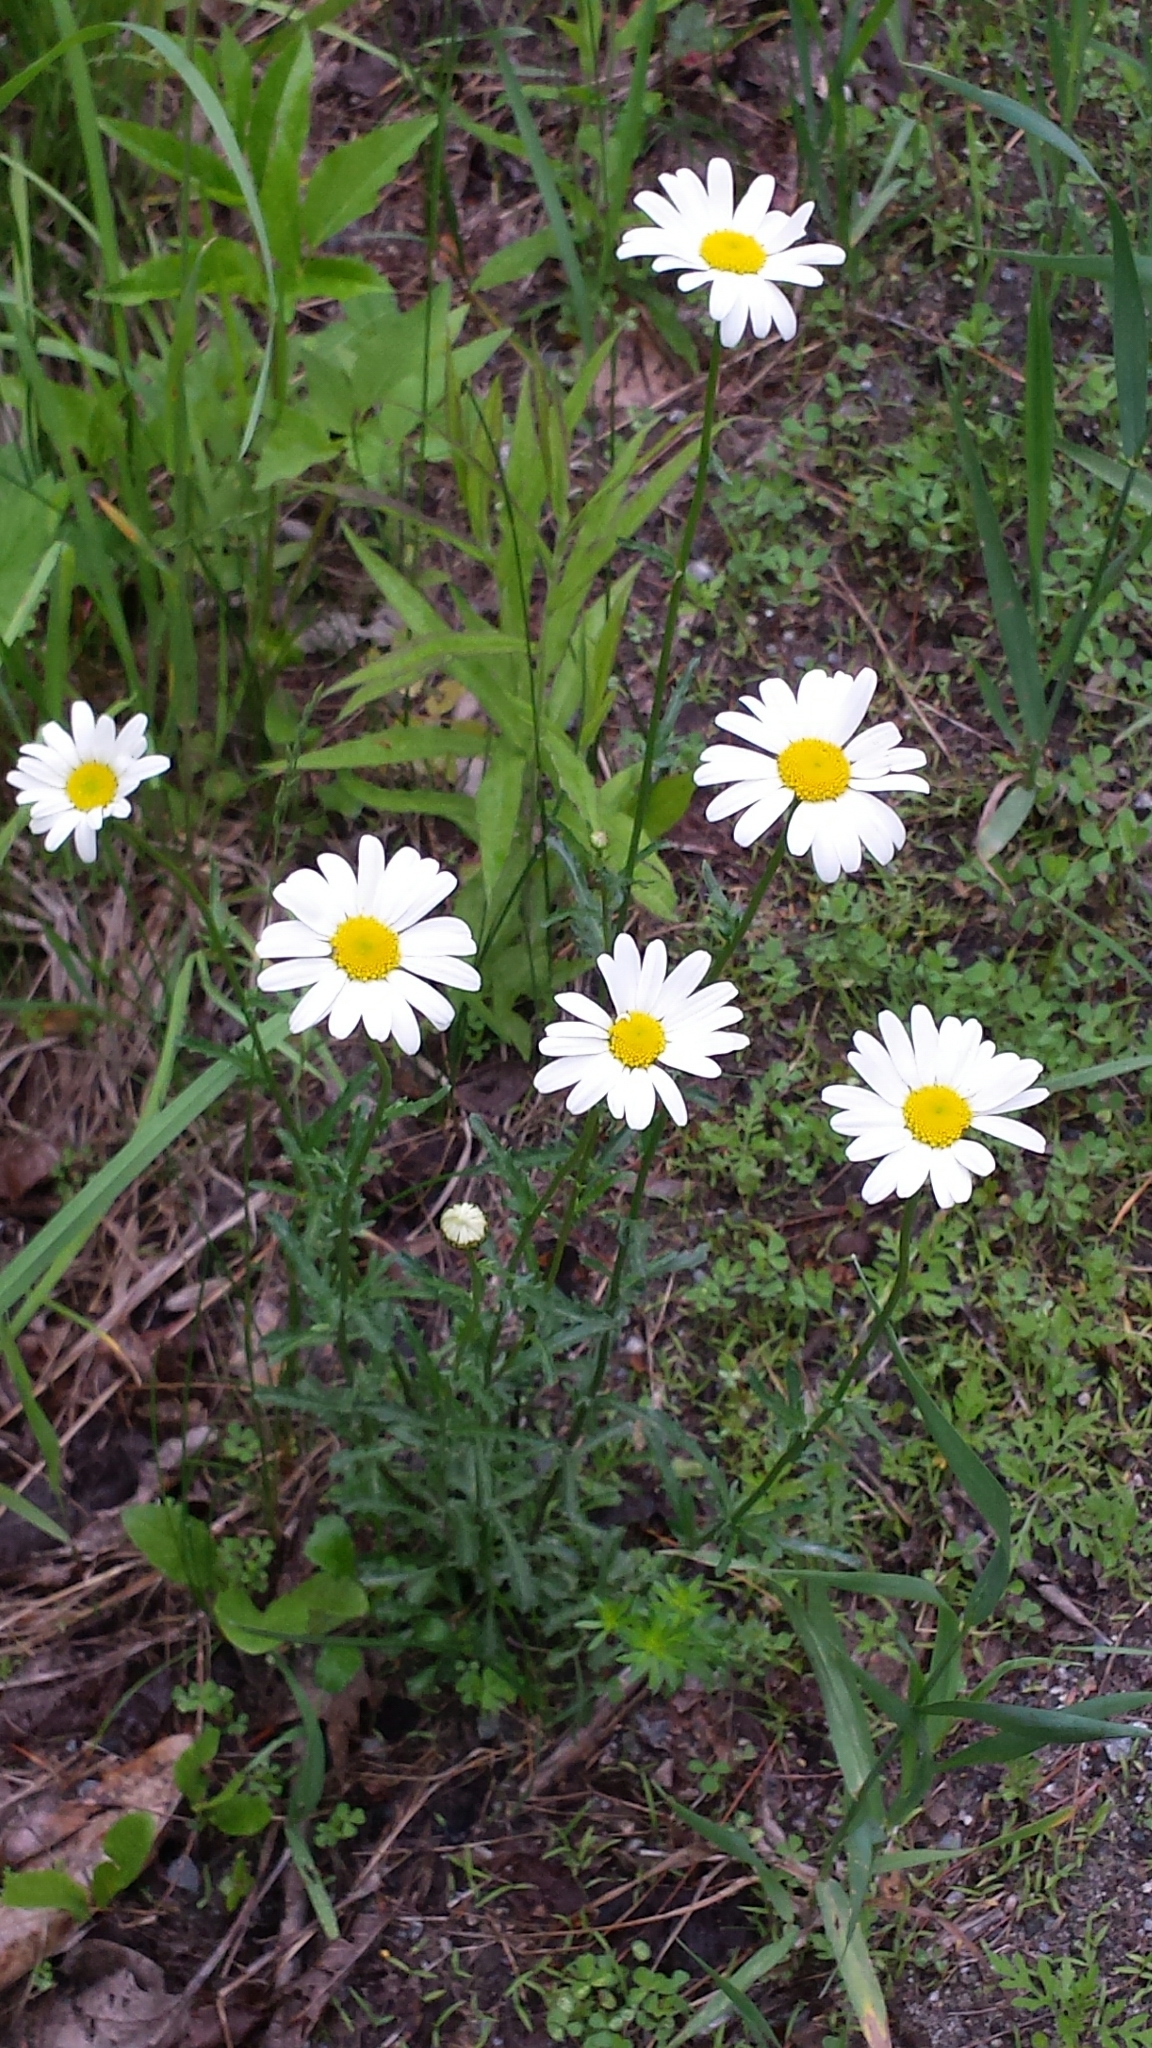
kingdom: Plantae
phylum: Tracheophyta
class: Magnoliopsida
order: Asterales
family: Asteraceae
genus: Leucanthemum
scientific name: Leucanthemum vulgare
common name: Oxeye daisy
